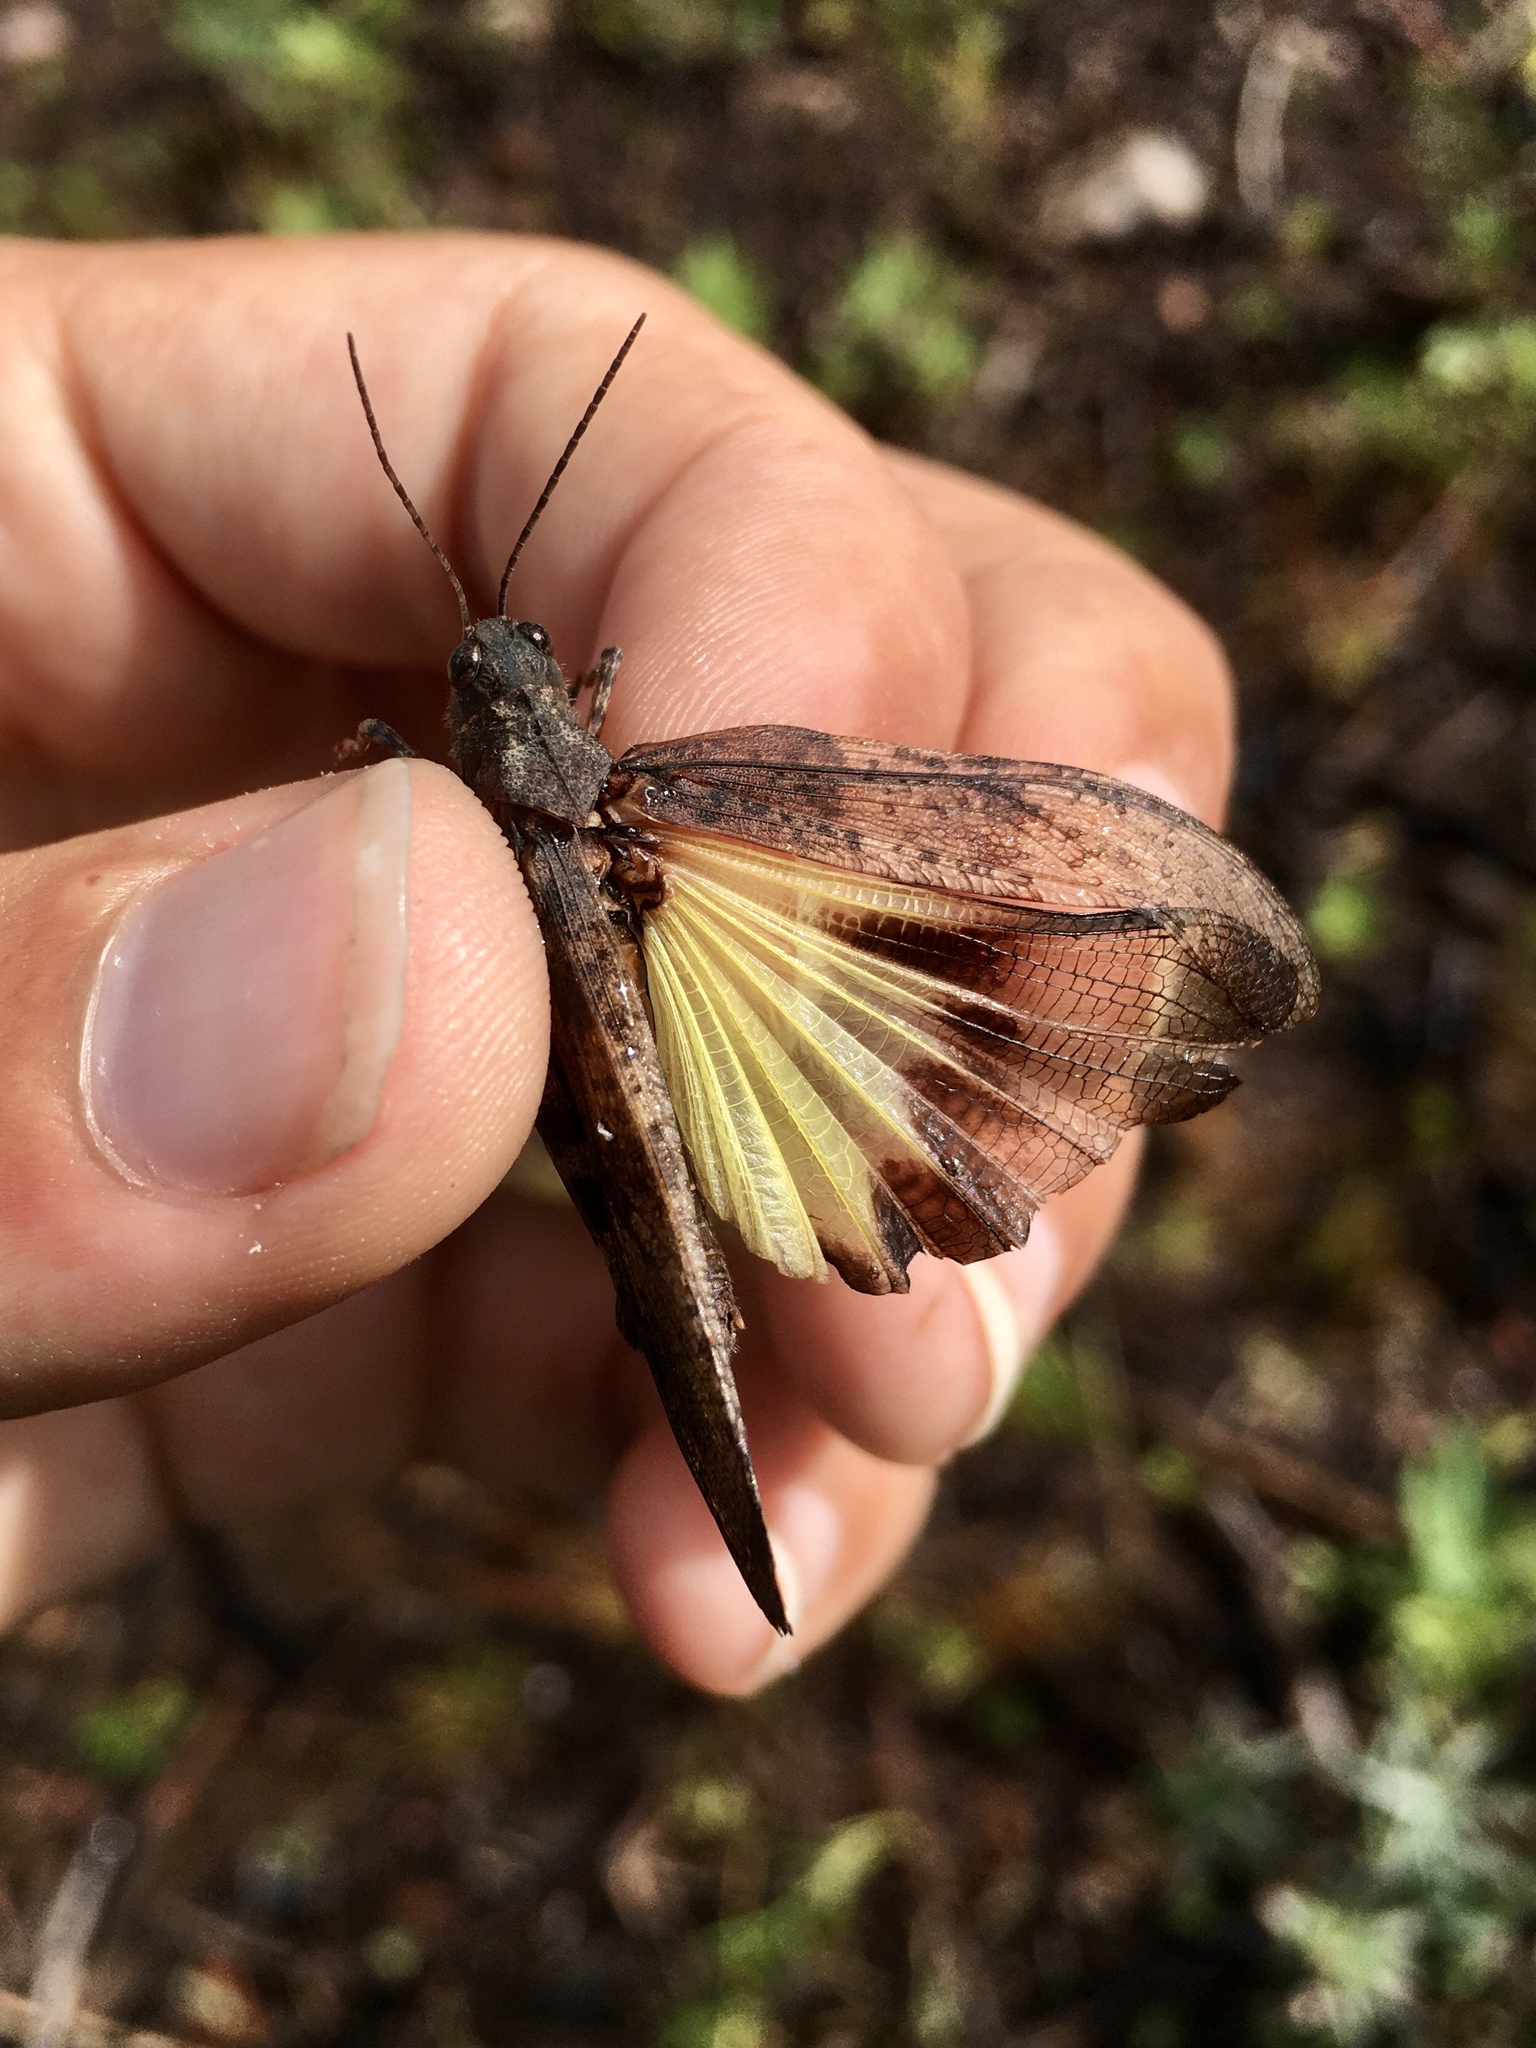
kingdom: Animalia
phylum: Arthropoda
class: Insecta
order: Orthoptera
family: Acrididae
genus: Trimerotropis
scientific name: Trimerotropis verruculata
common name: Crackling forest grasshopper
